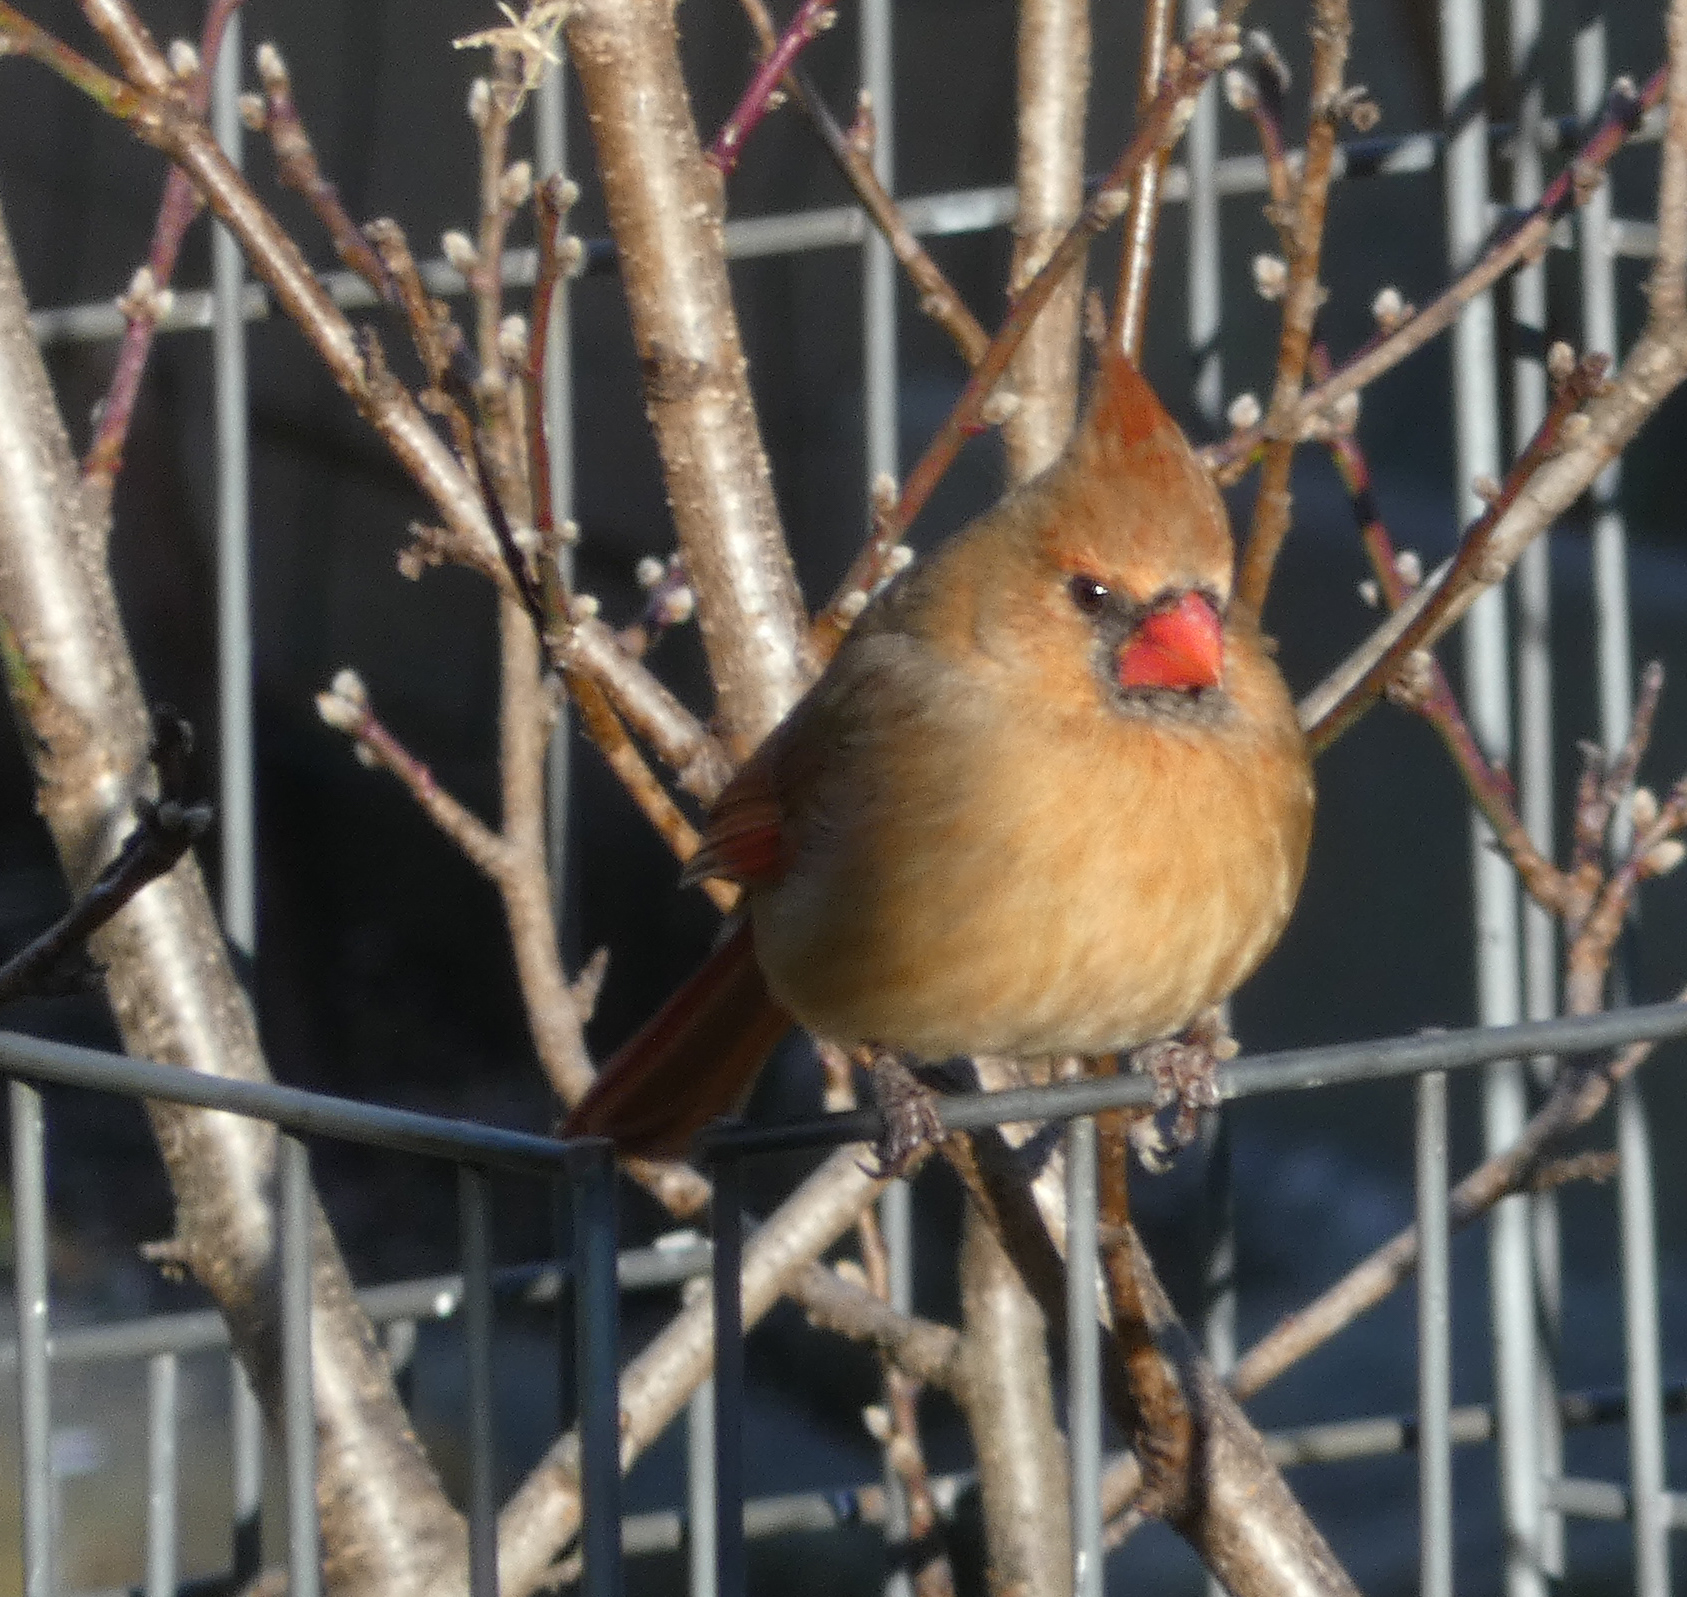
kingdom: Animalia
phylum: Chordata
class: Aves
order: Passeriformes
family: Cardinalidae
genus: Cardinalis
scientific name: Cardinalis cardinalis
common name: Northern cardinal
